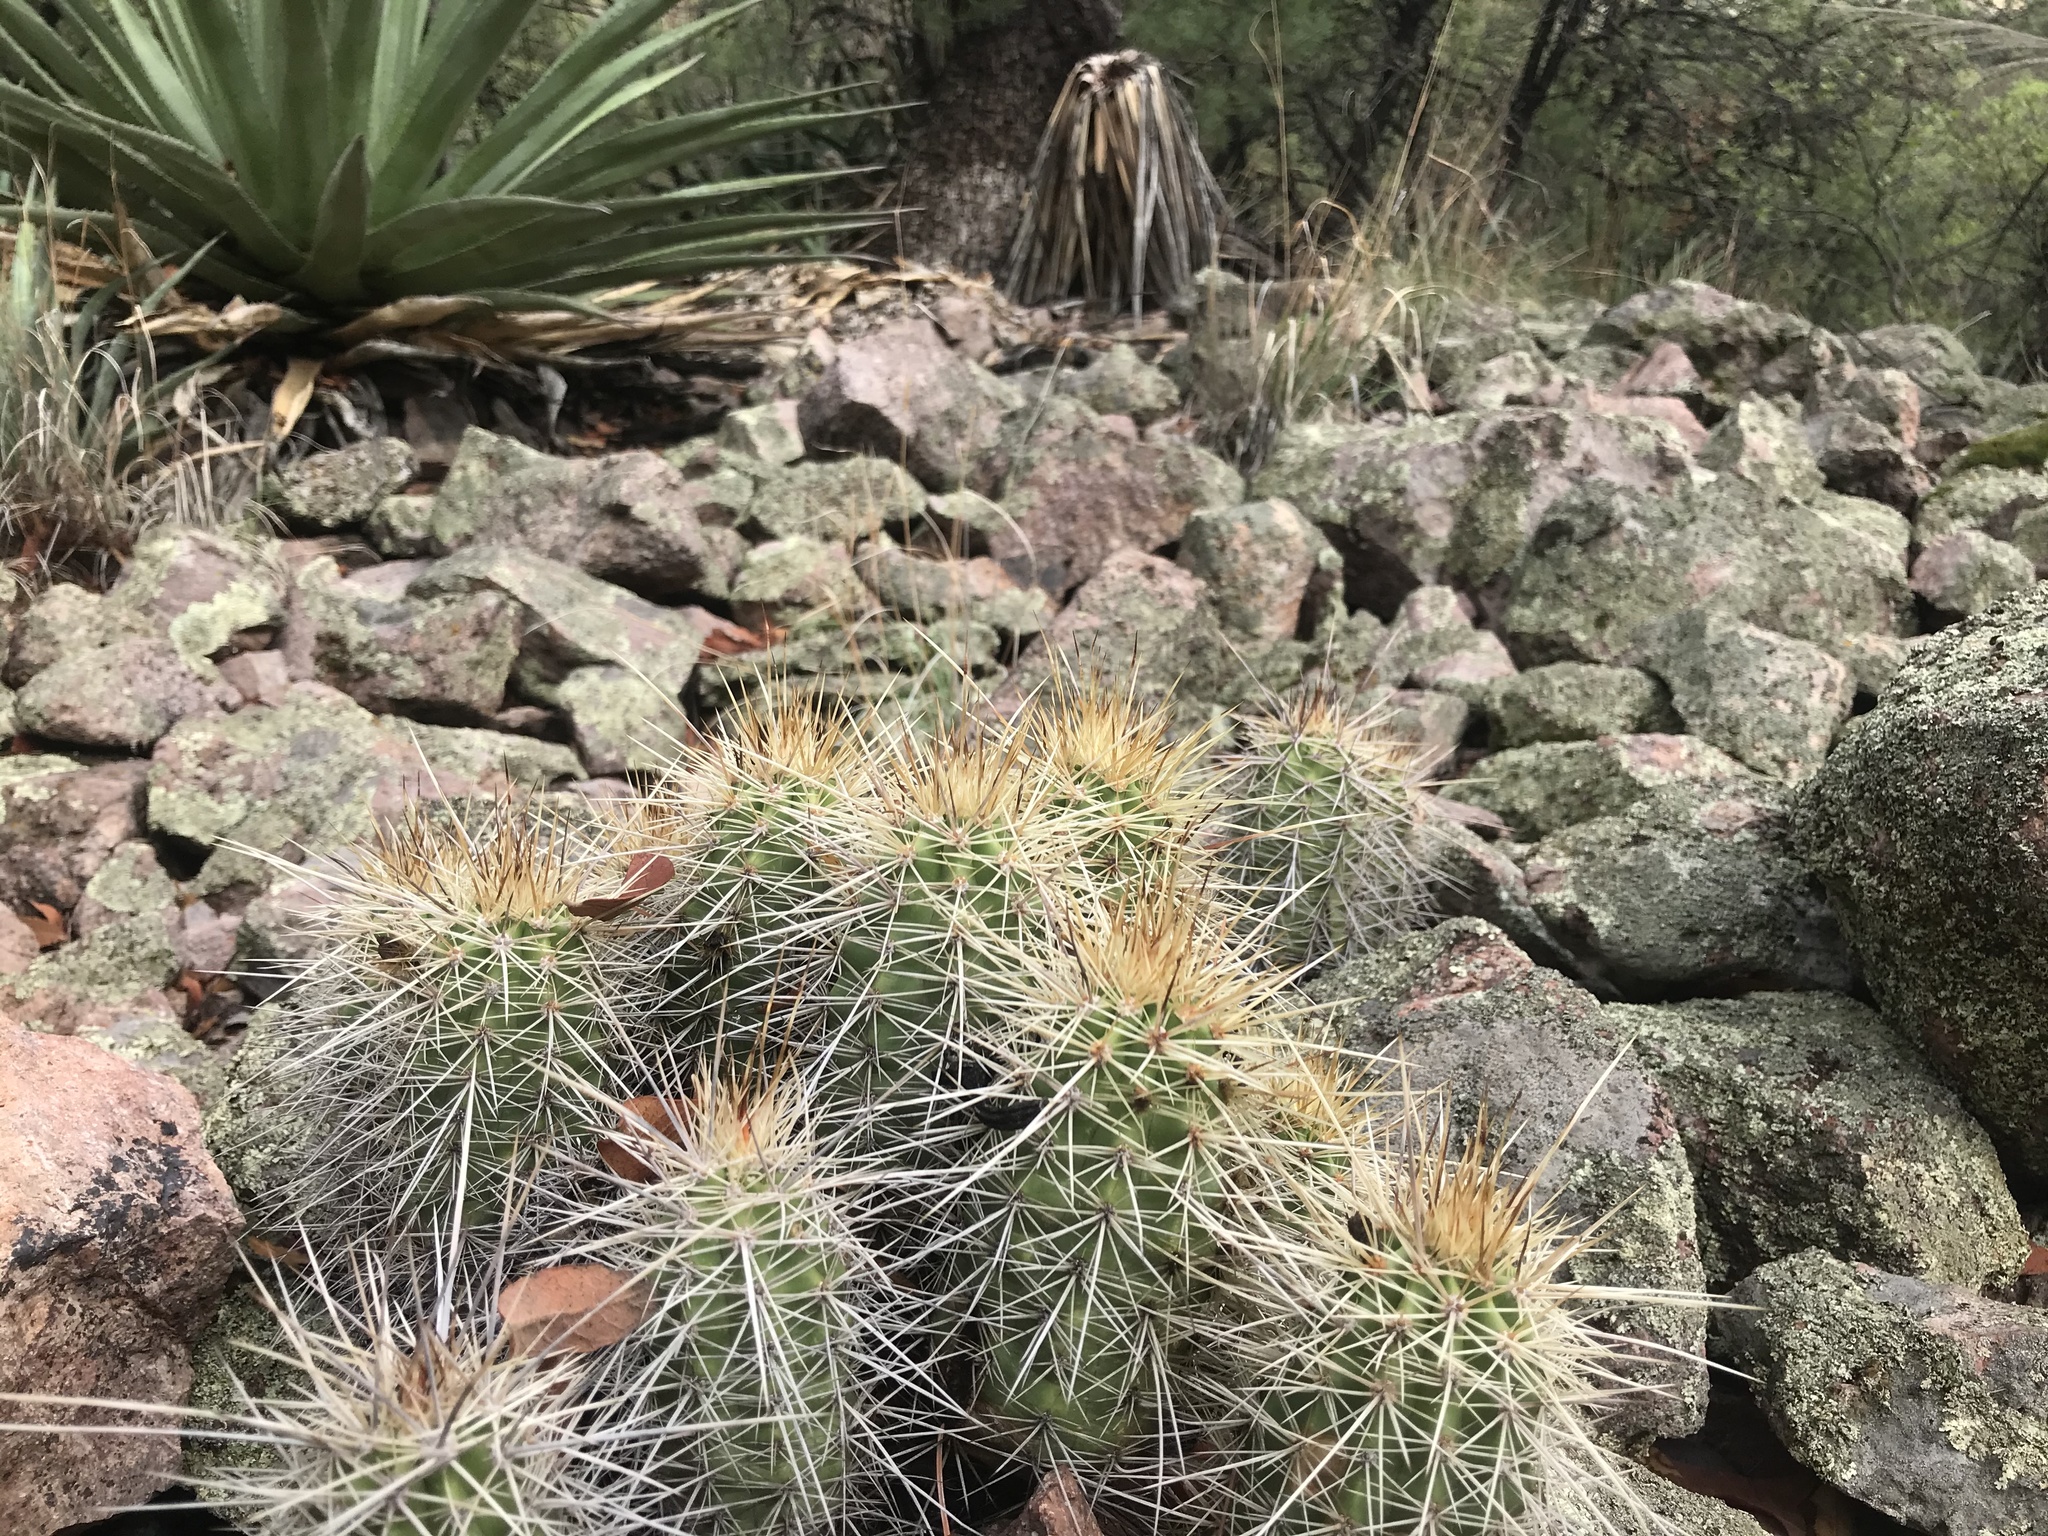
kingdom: Plantae
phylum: Tracheophyta
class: Magnoliopsida
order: Caryophyllales
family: Cactaceae
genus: Echinocereus
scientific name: Echinocereus coccineus
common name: Scarlet hedgehog cactus
